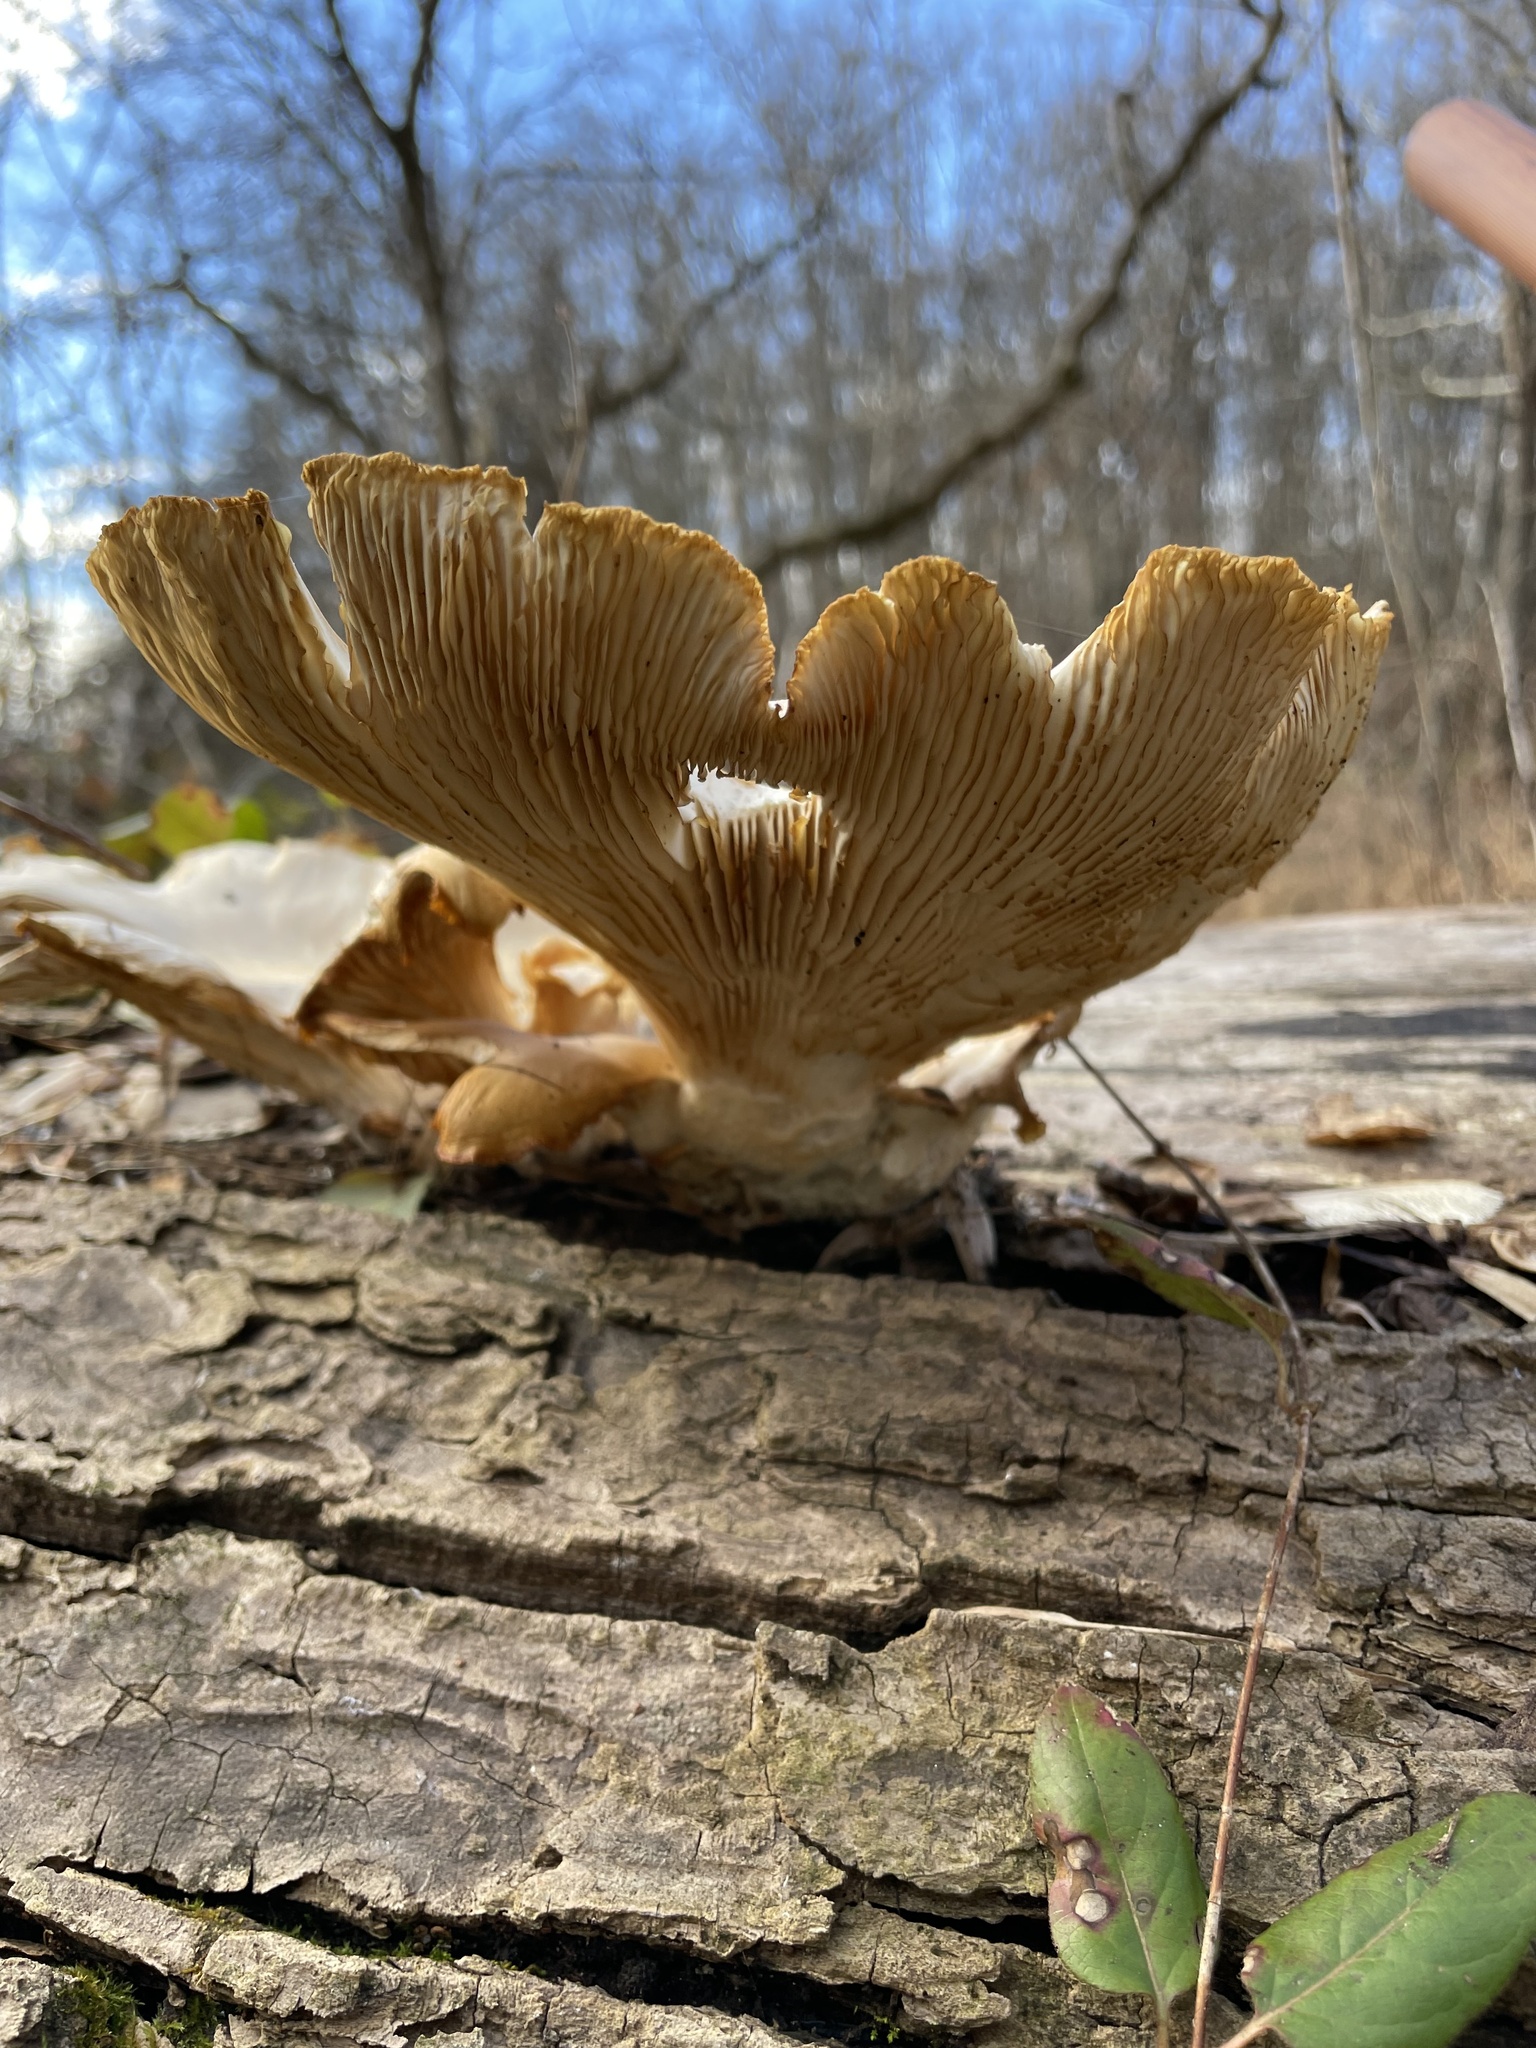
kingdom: Fungi
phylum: Basidiomycota
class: Agaricomycetes
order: Agaricales
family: Pleurotaceae
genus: Pleurotus
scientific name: Pleurotus ostreatus
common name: Oyster mushroom
